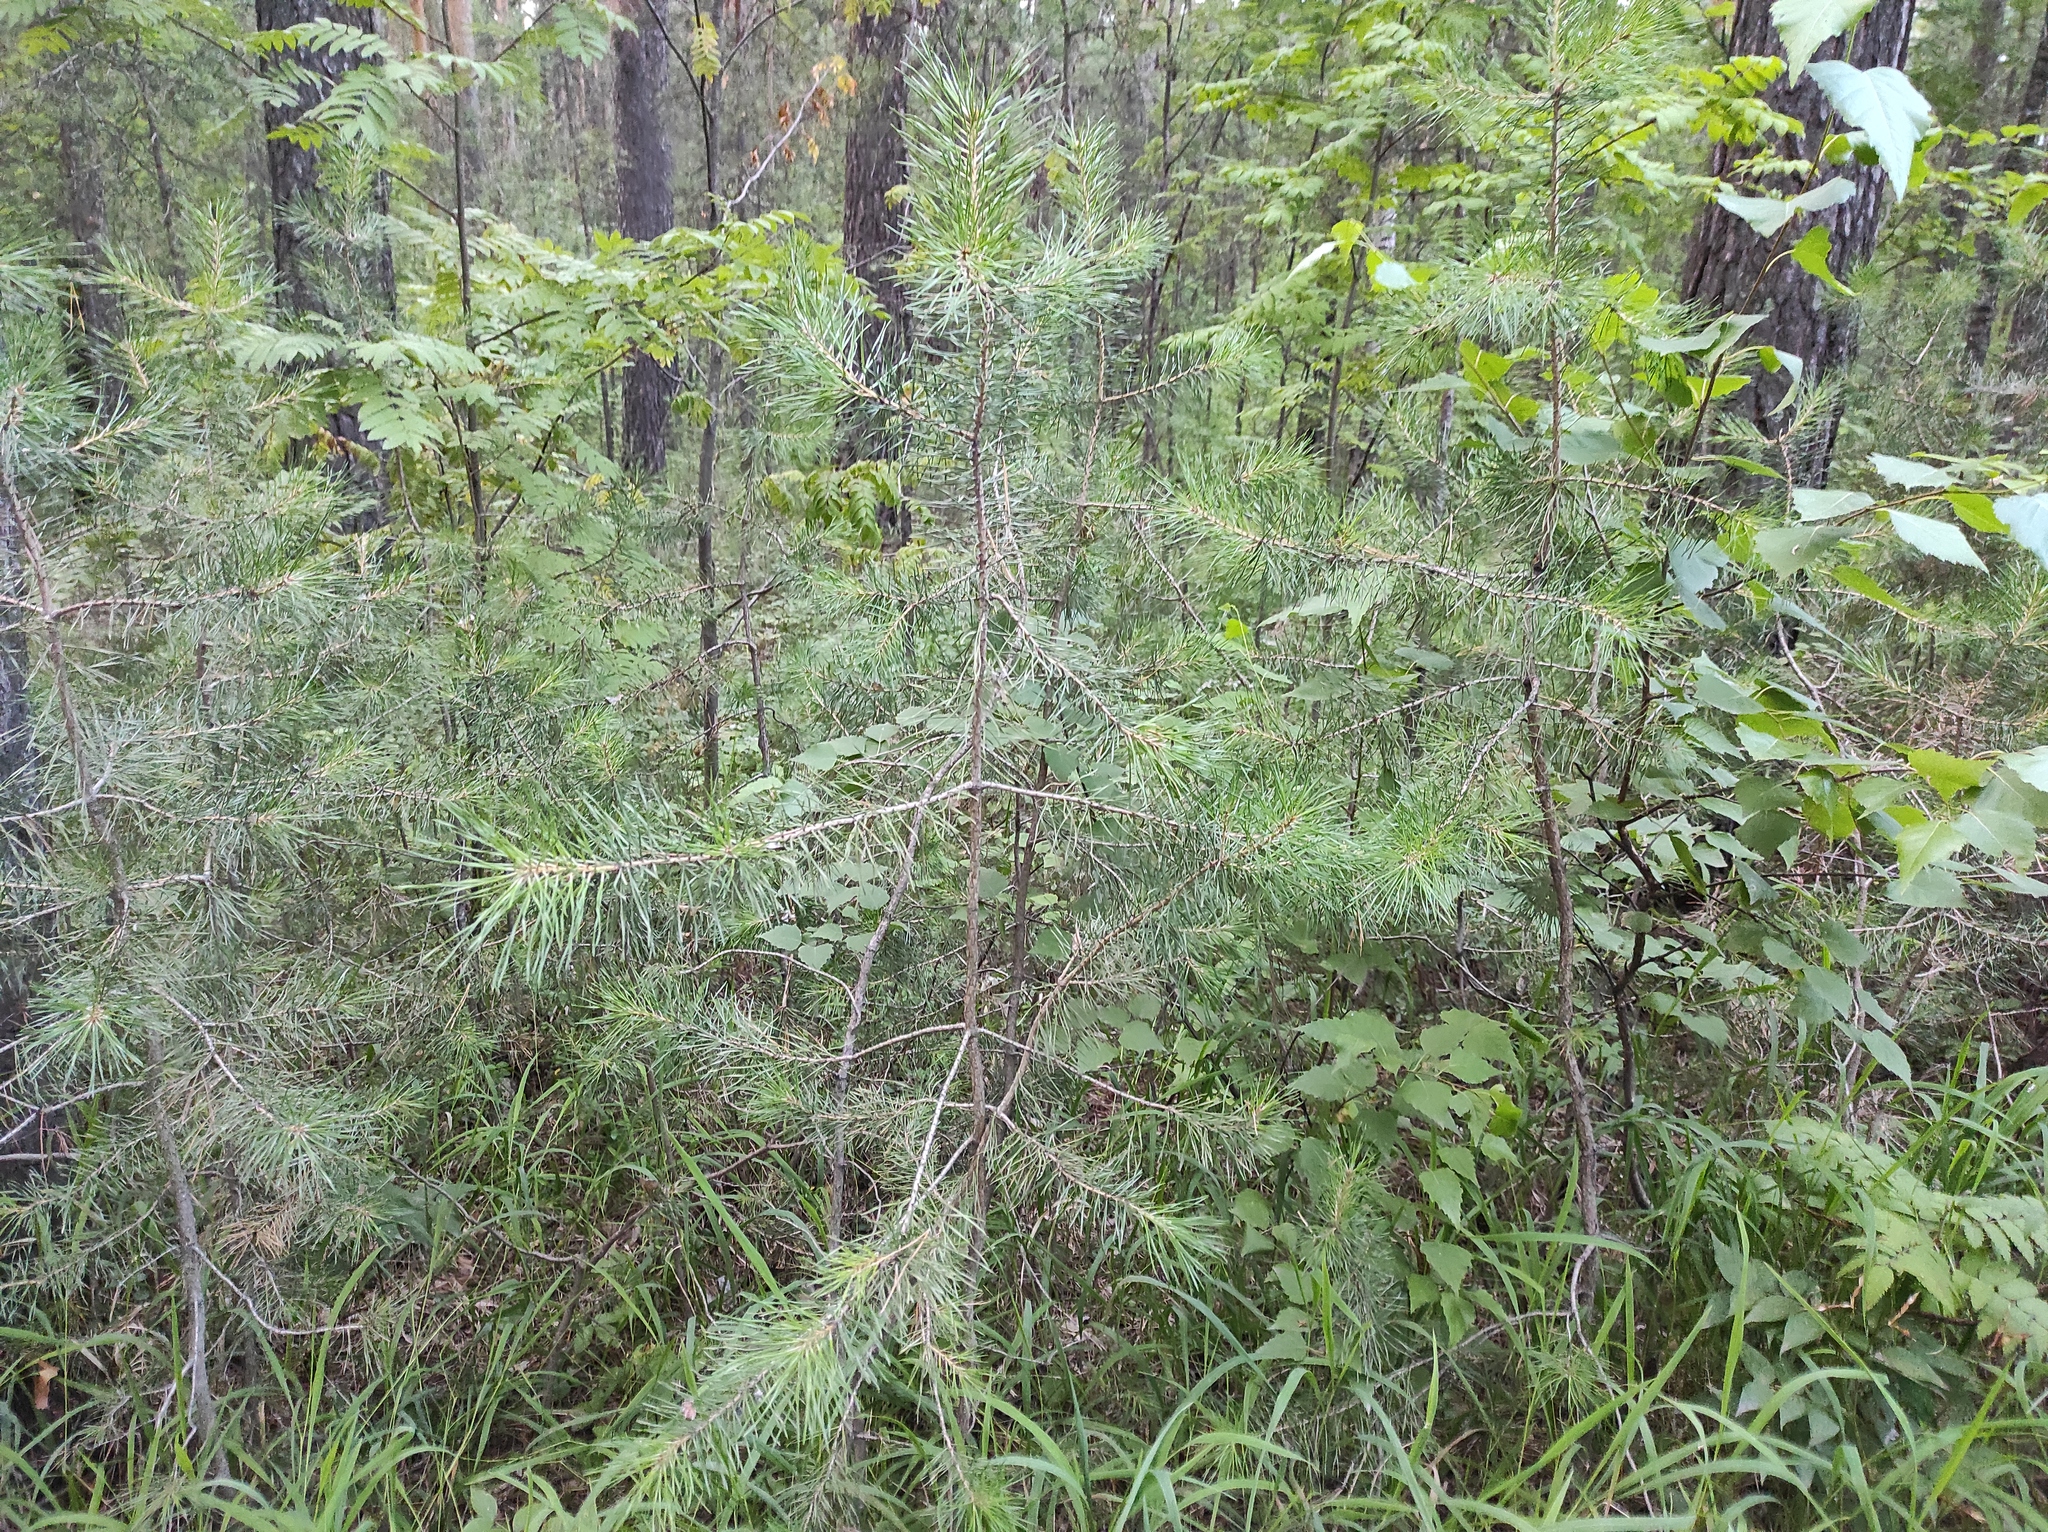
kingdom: Plantae
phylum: Tracheophyta
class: Pinopsida
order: Pinales
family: Pinaceae
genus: Pinus
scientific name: Pinus sylvestris
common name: Scots pine
